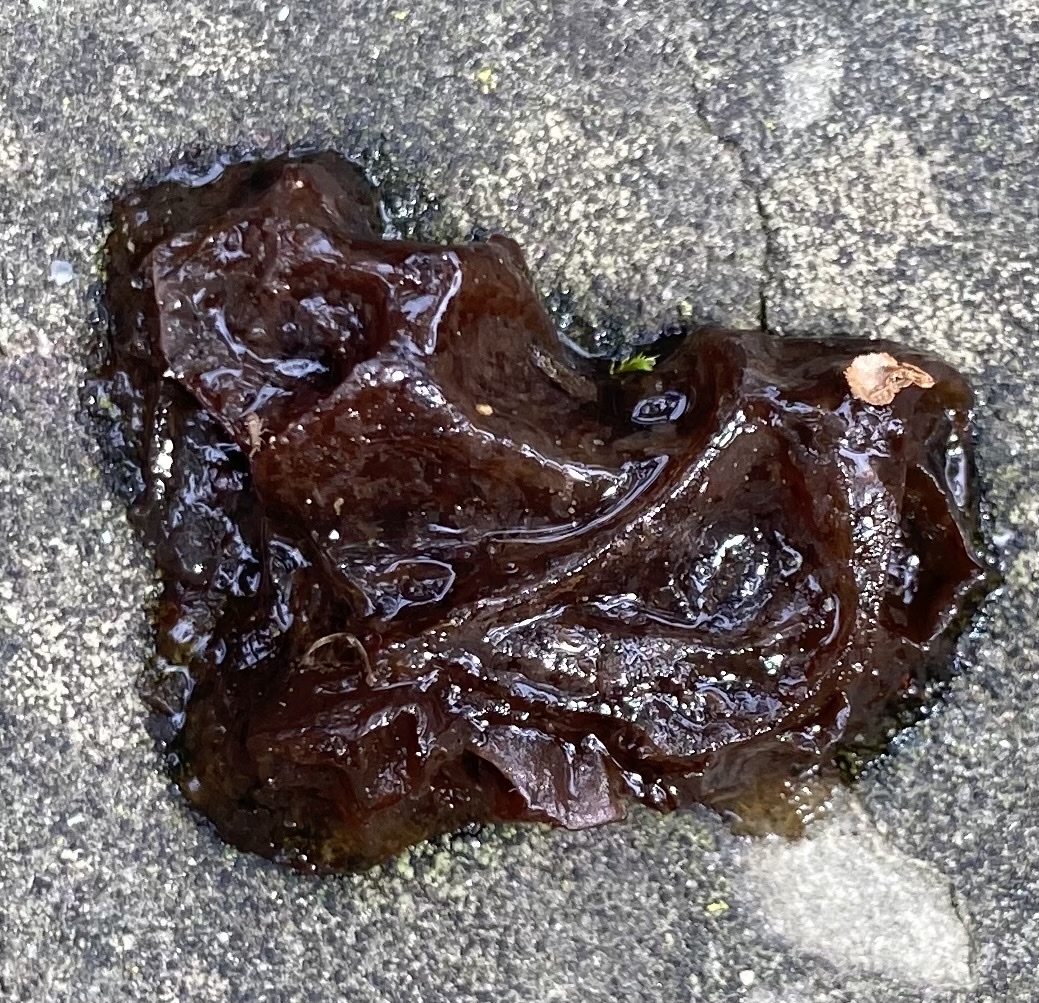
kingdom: Fungi
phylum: Basidiomycota
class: Agaricomycetes
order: Auriculariales
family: Auriculariaceae
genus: Exidia
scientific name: Exidia
